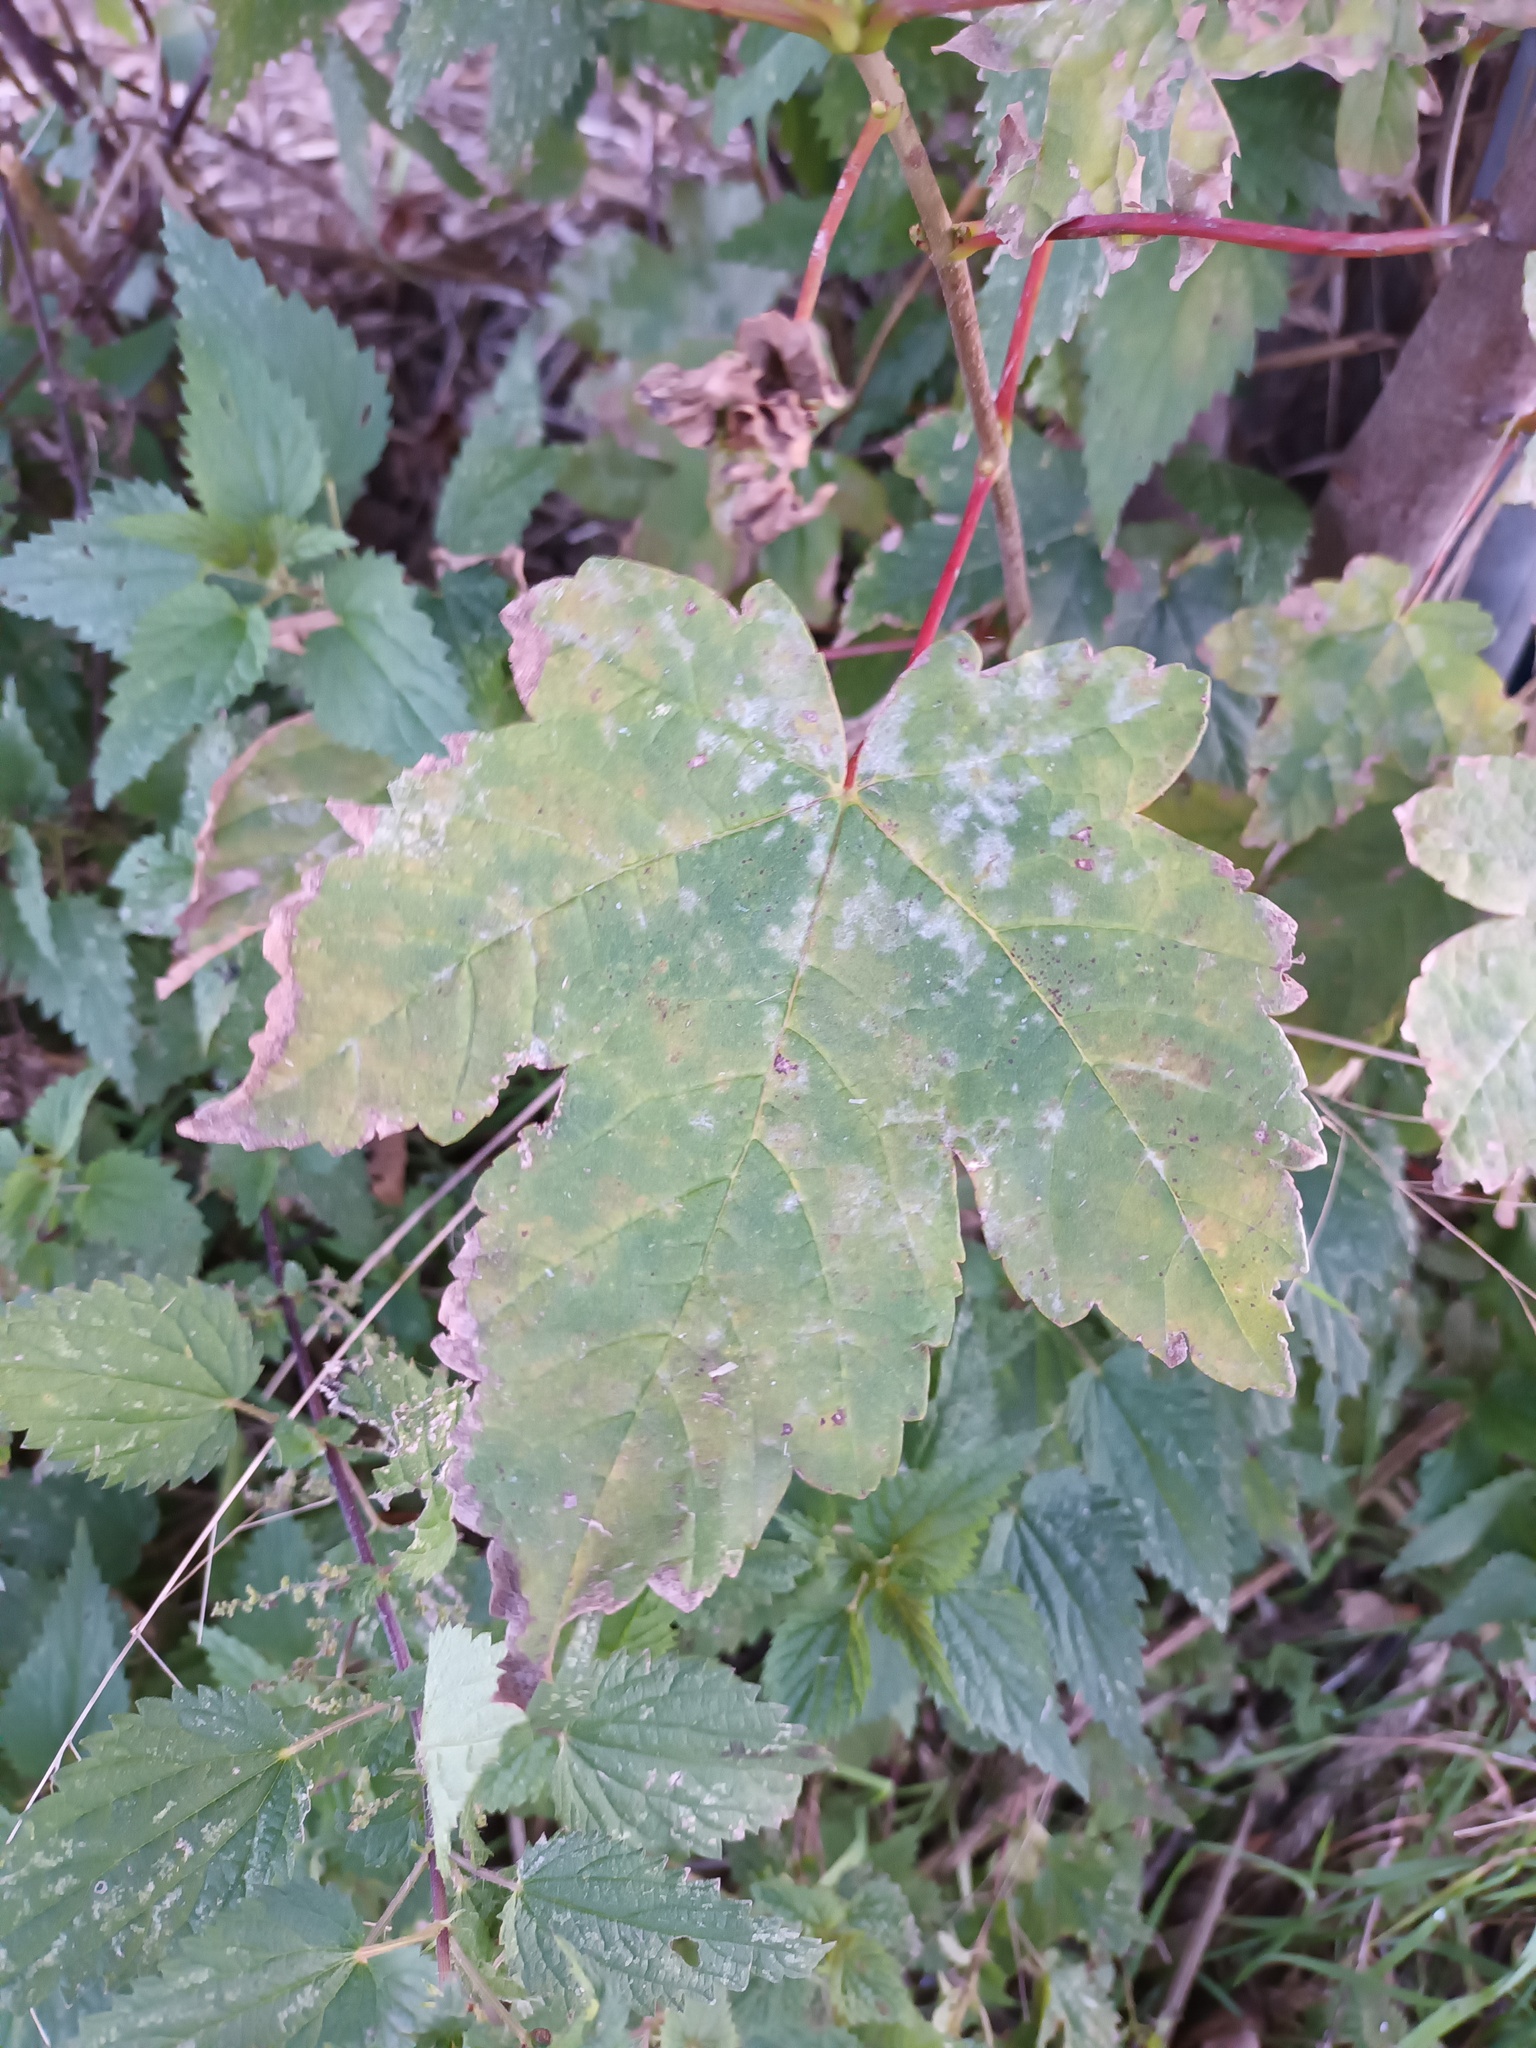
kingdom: Fungi
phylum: Ascomycota
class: Leotiomycetes
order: Helotiales
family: Erysiphaceae
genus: Sawadaea
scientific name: Sawadaea bicornis
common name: Maple mildew
